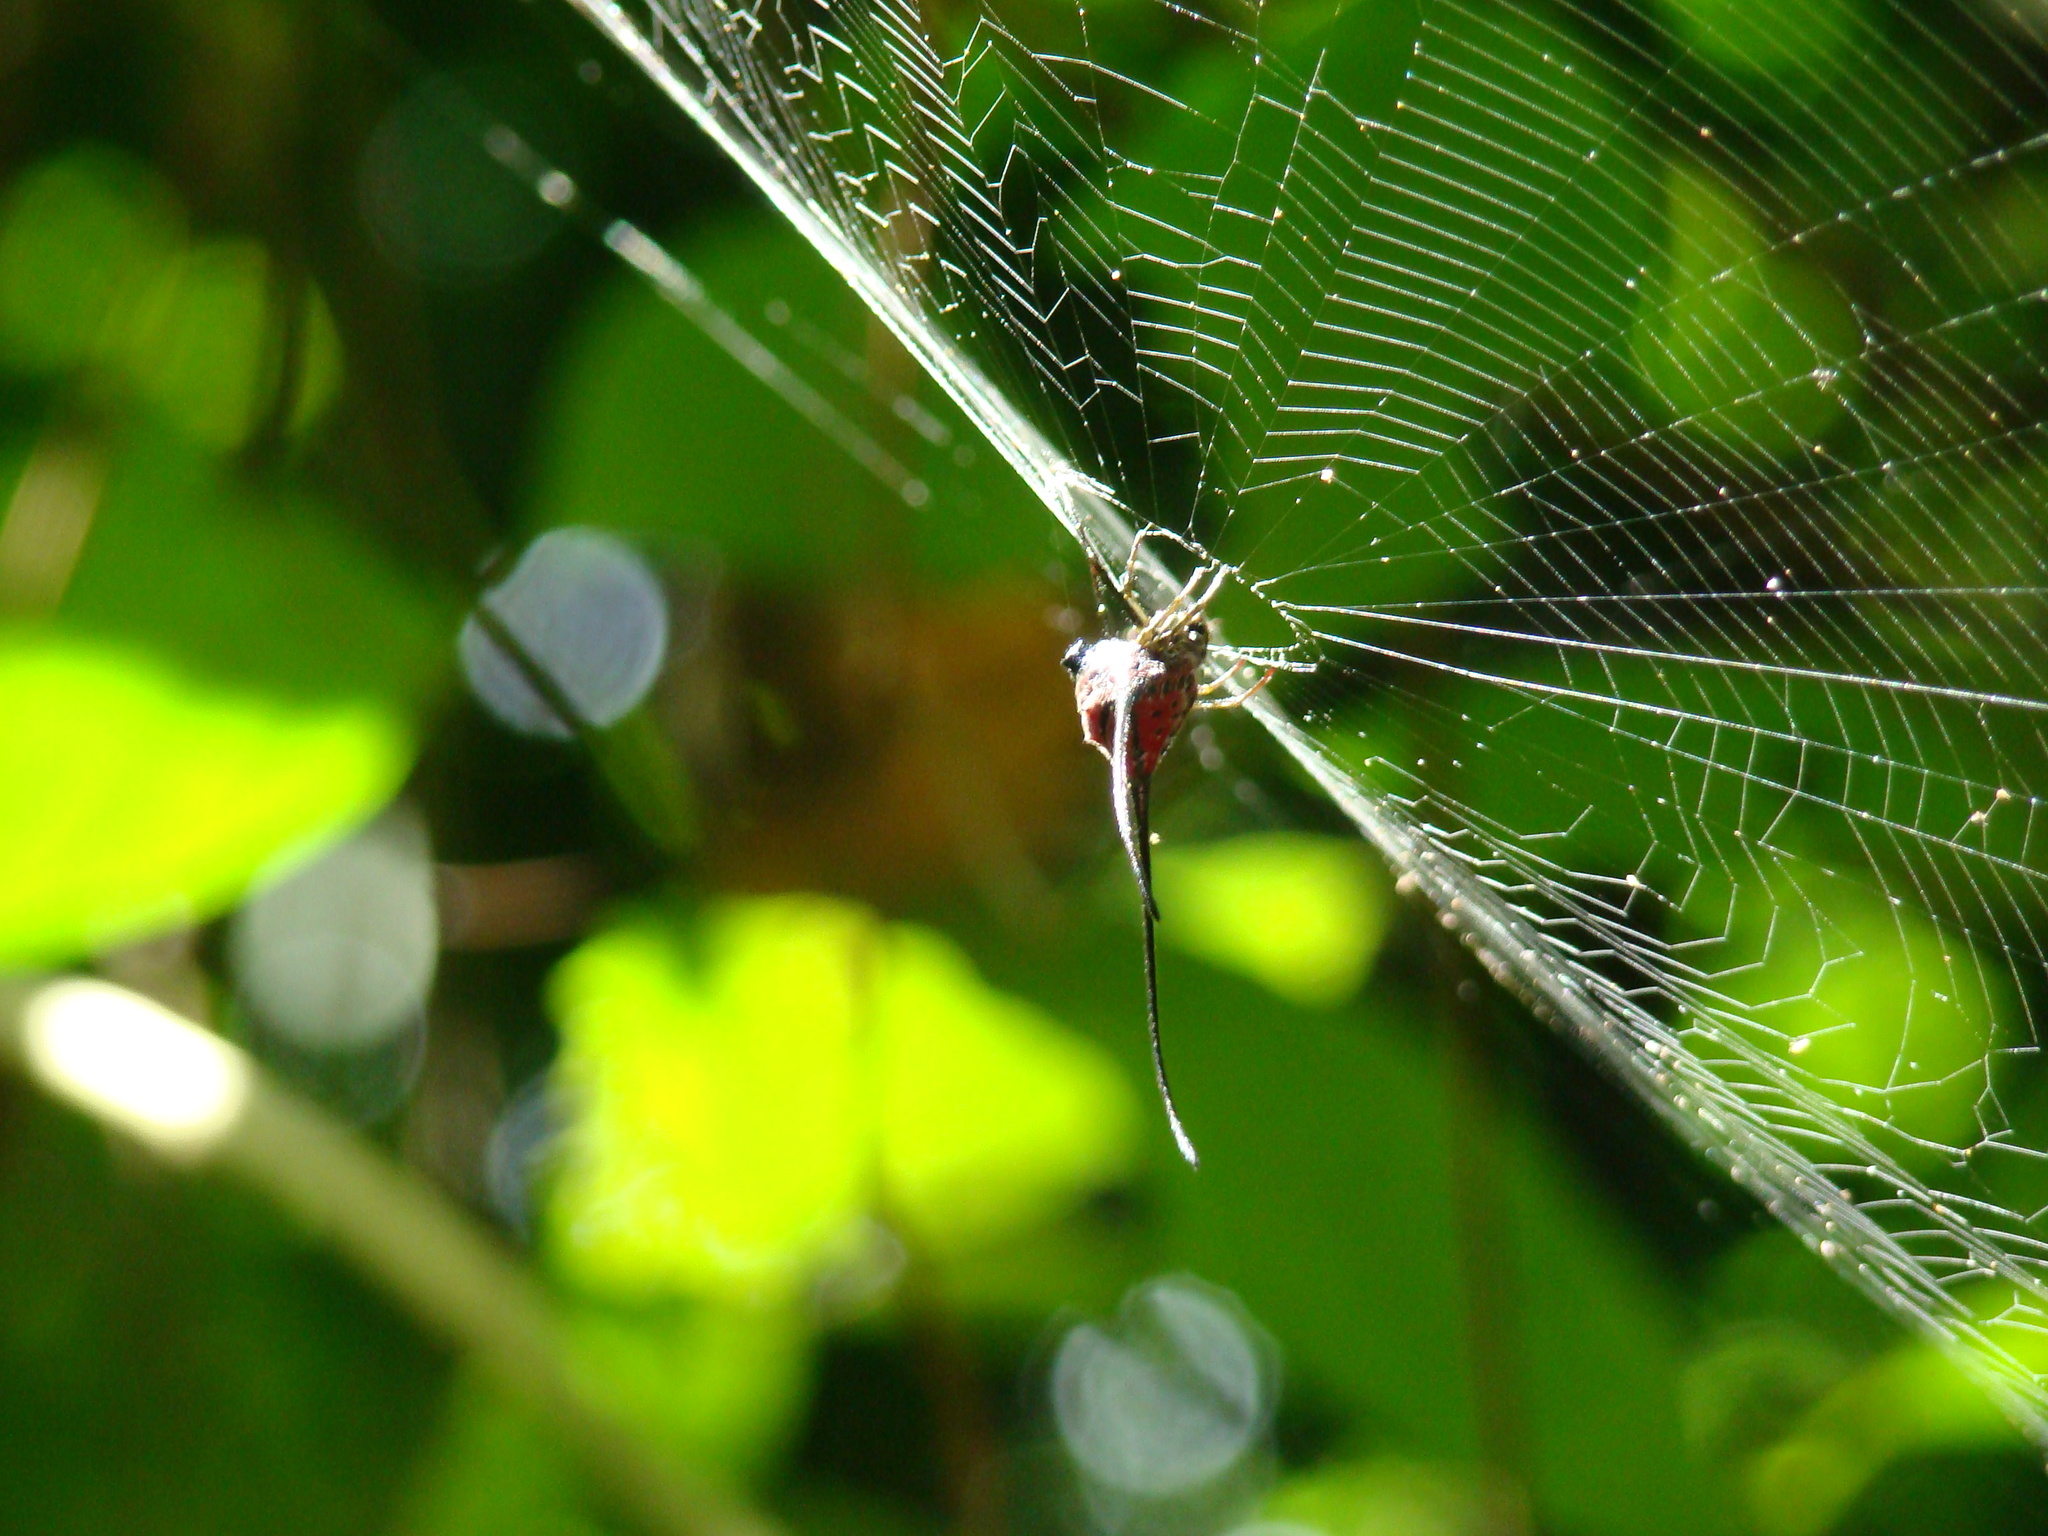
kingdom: Animalia
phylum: Arthropoda
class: Arachnida
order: Araneae
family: Araneidae
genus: Macracantha
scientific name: Macracantha arcuata
